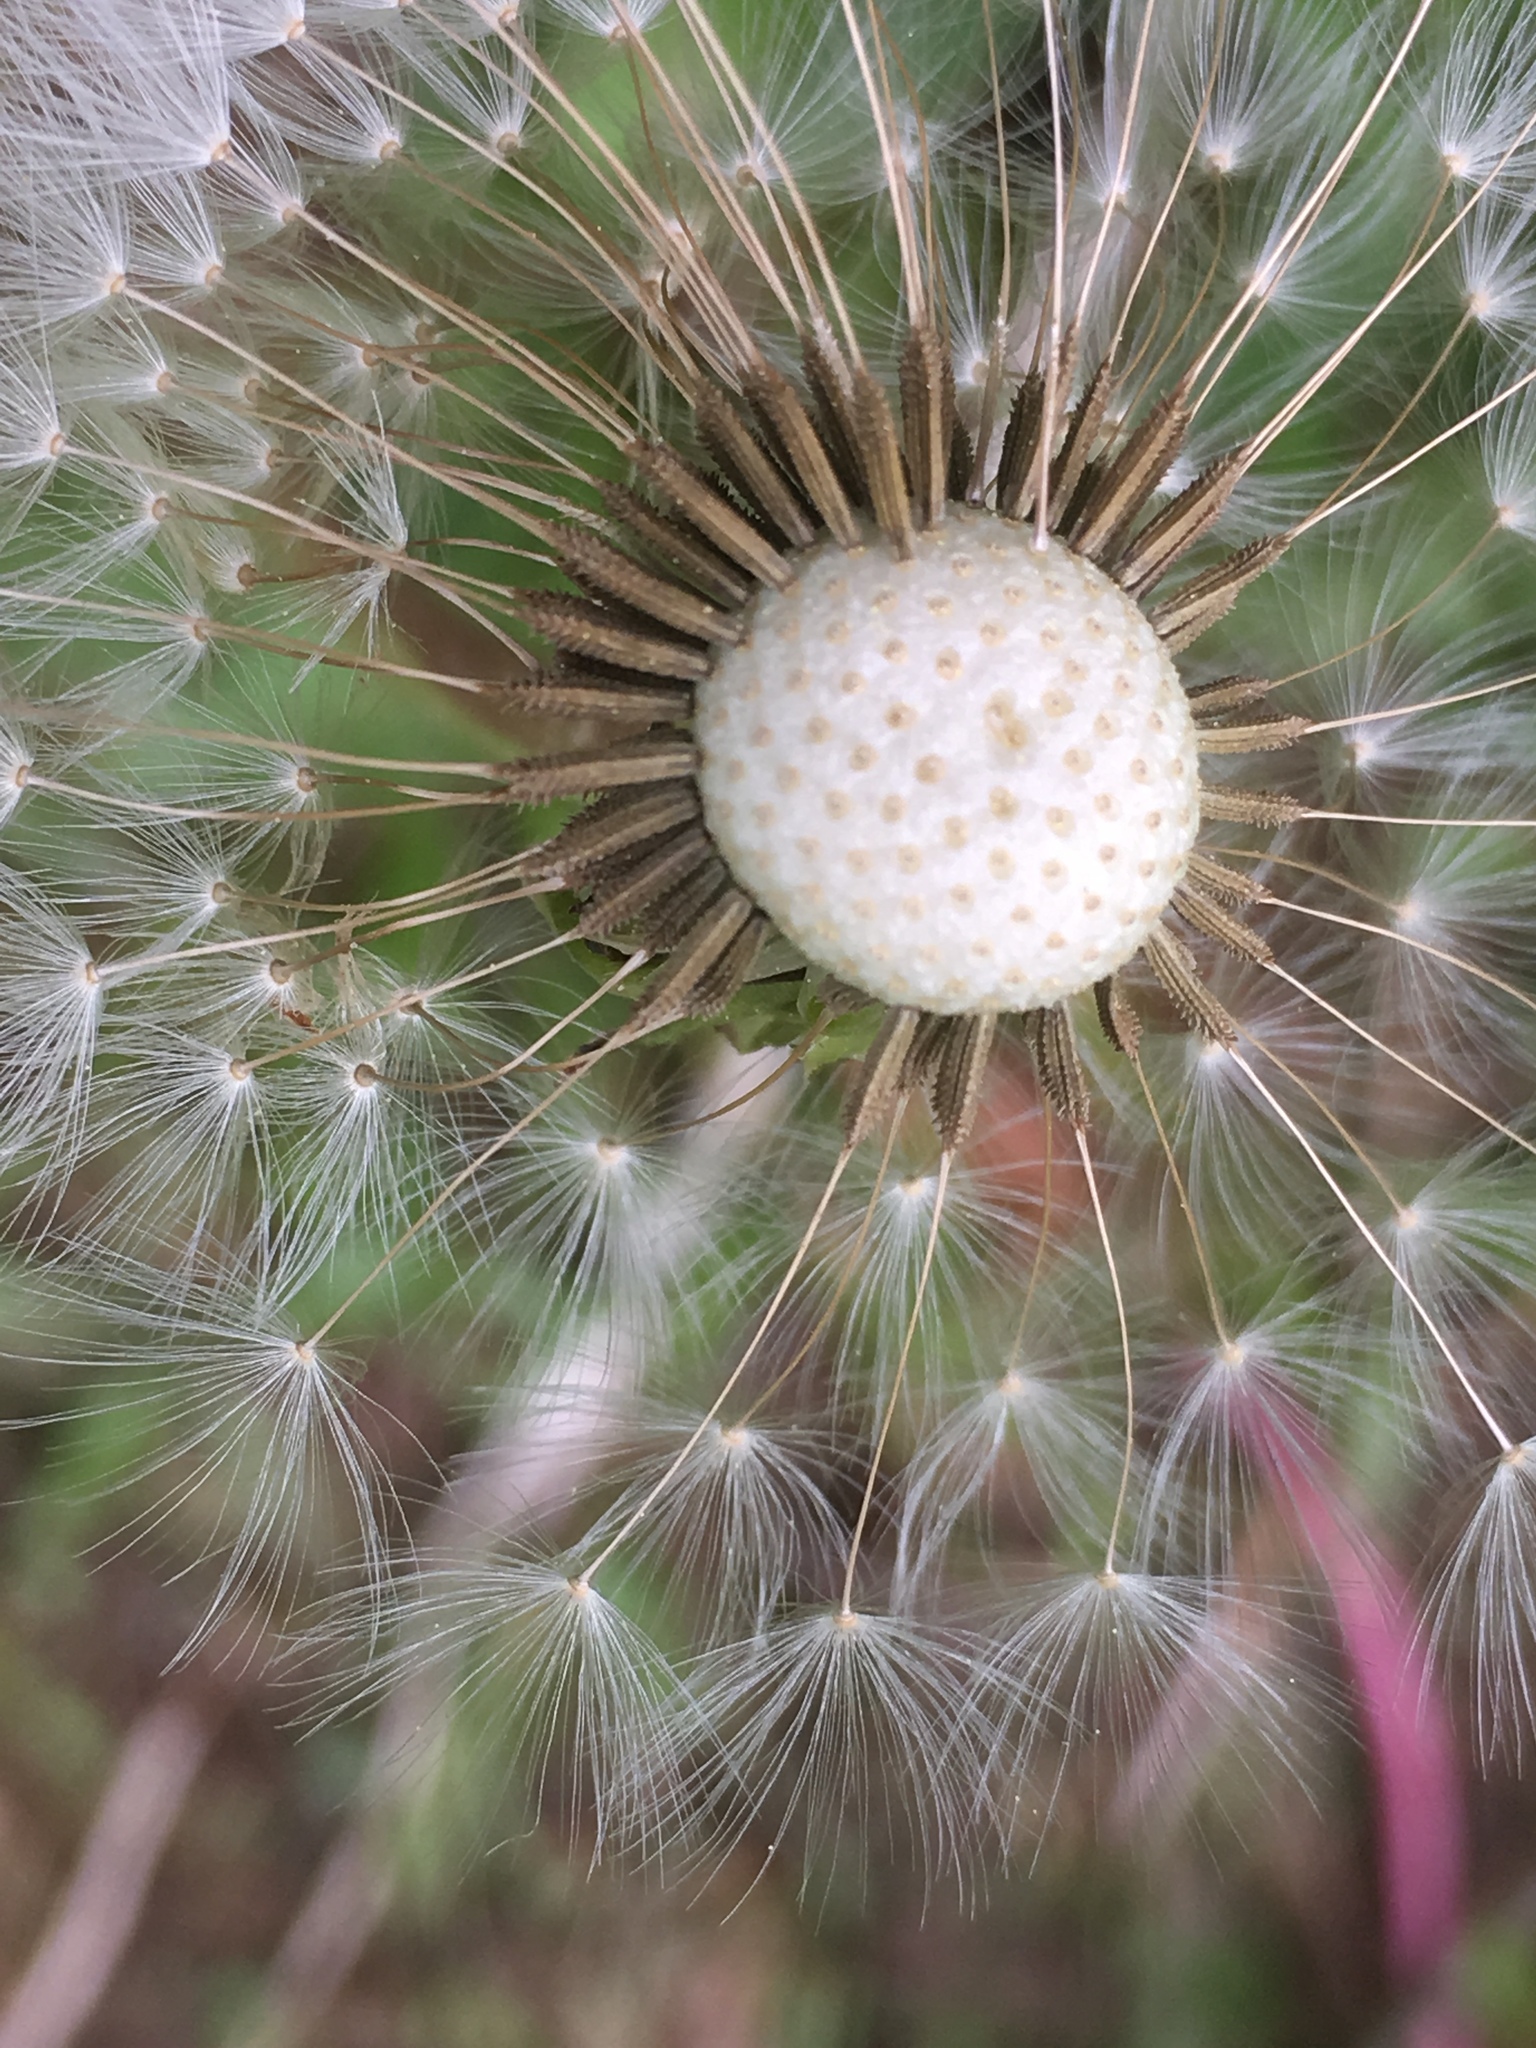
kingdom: Plantae
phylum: Tracheophyta
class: Magnoliopsida
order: Asterales
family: Asteraceae
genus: Taraxacum
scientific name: Taraxacum officinale
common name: Common dandelion
